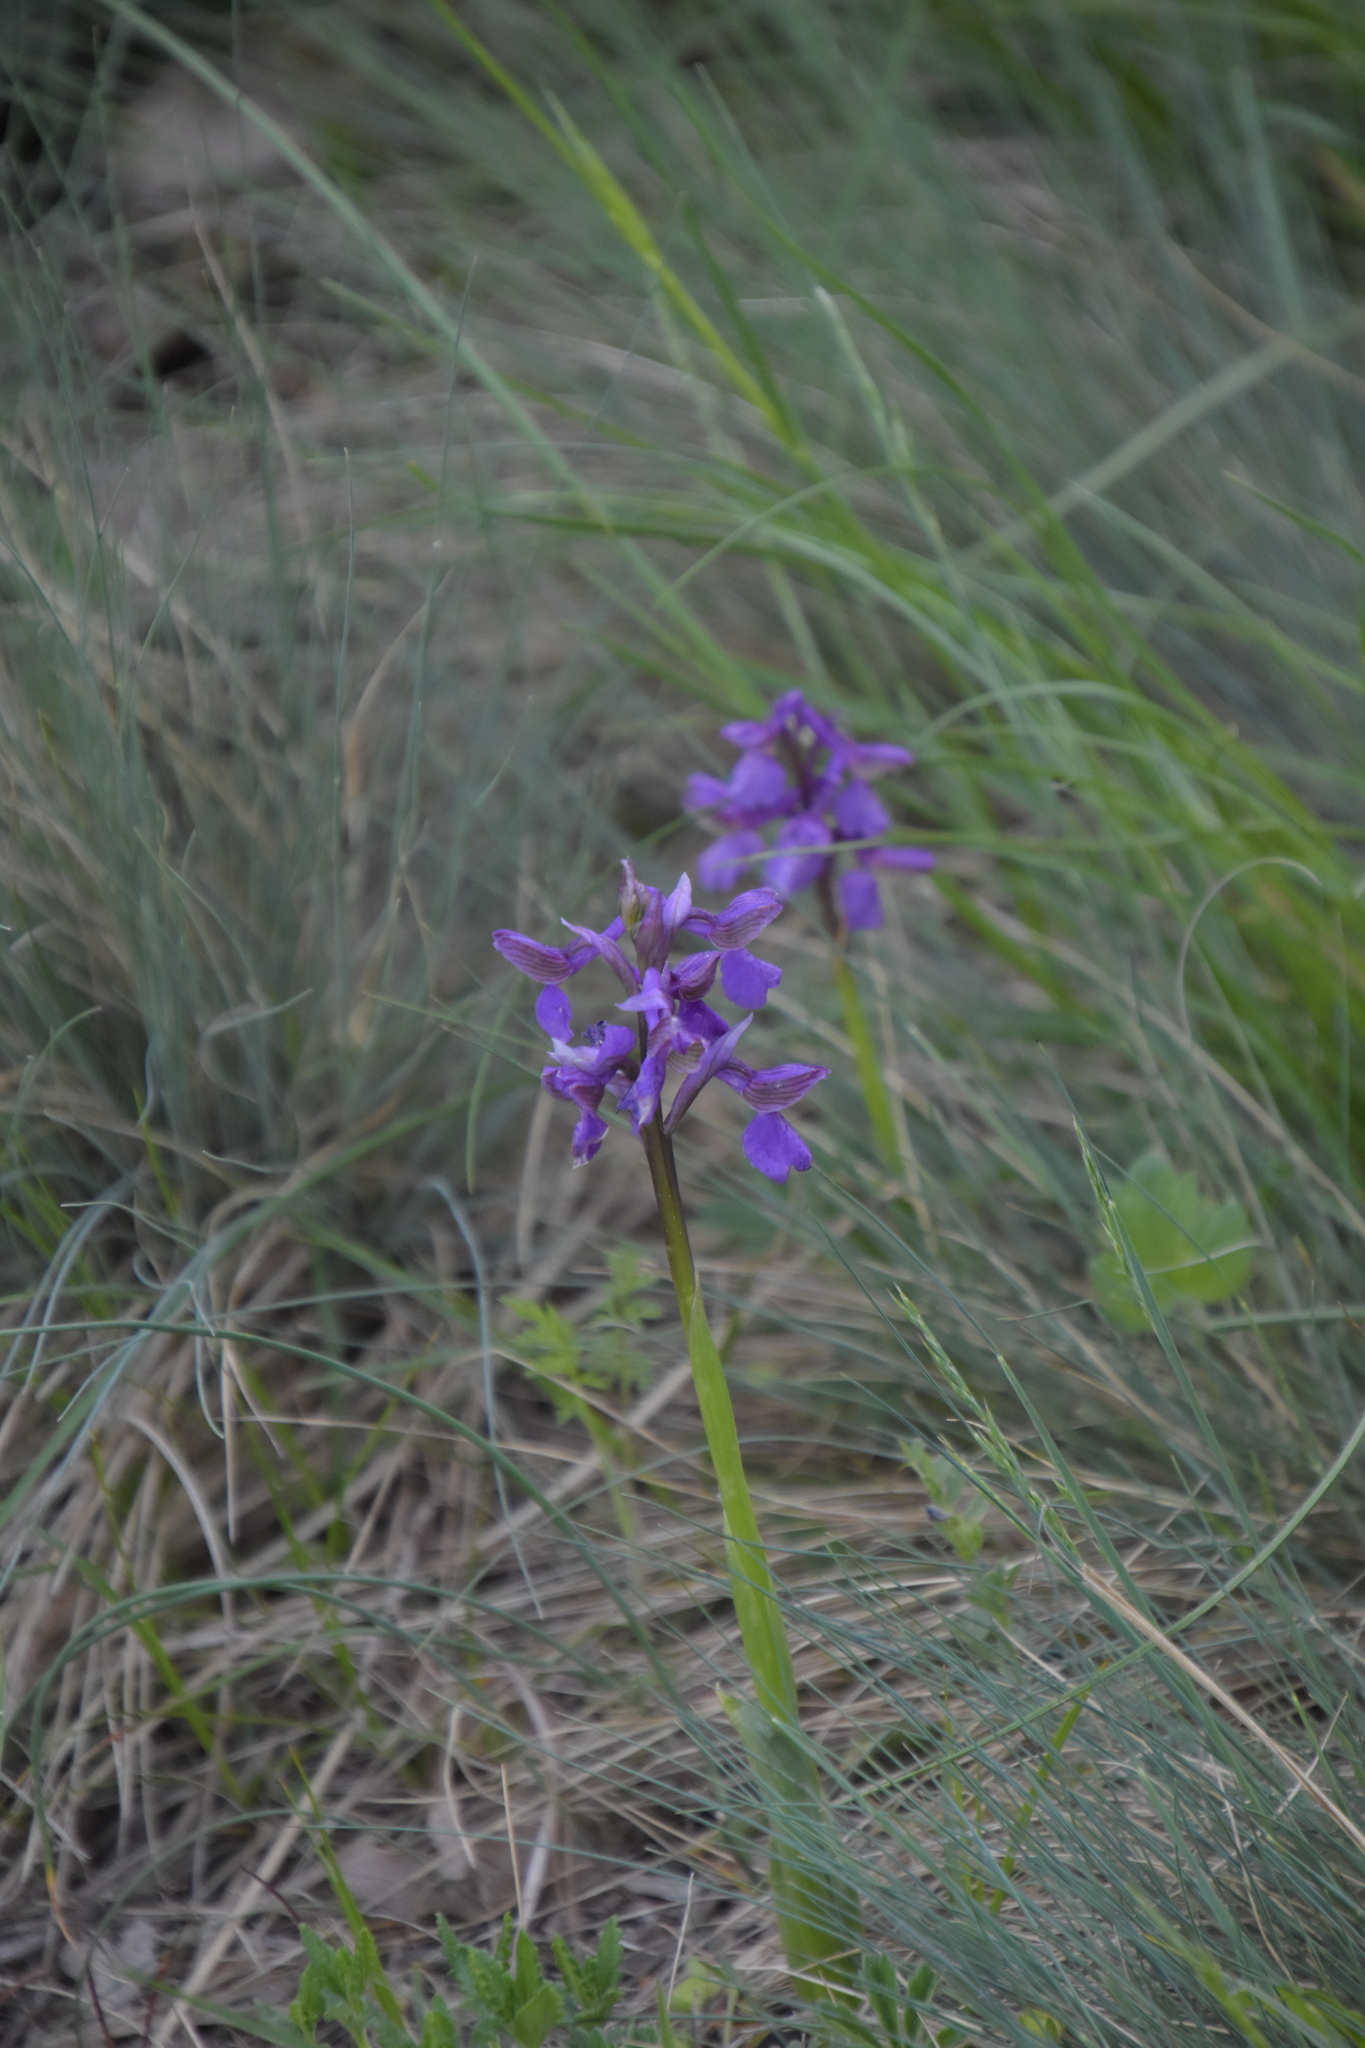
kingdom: Plantae
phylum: Tracheophyta
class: Liliopsida
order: Asparagales
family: Orchidaceae
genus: Anacamptis
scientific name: Anacamptis morio
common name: Green-winged orchid
